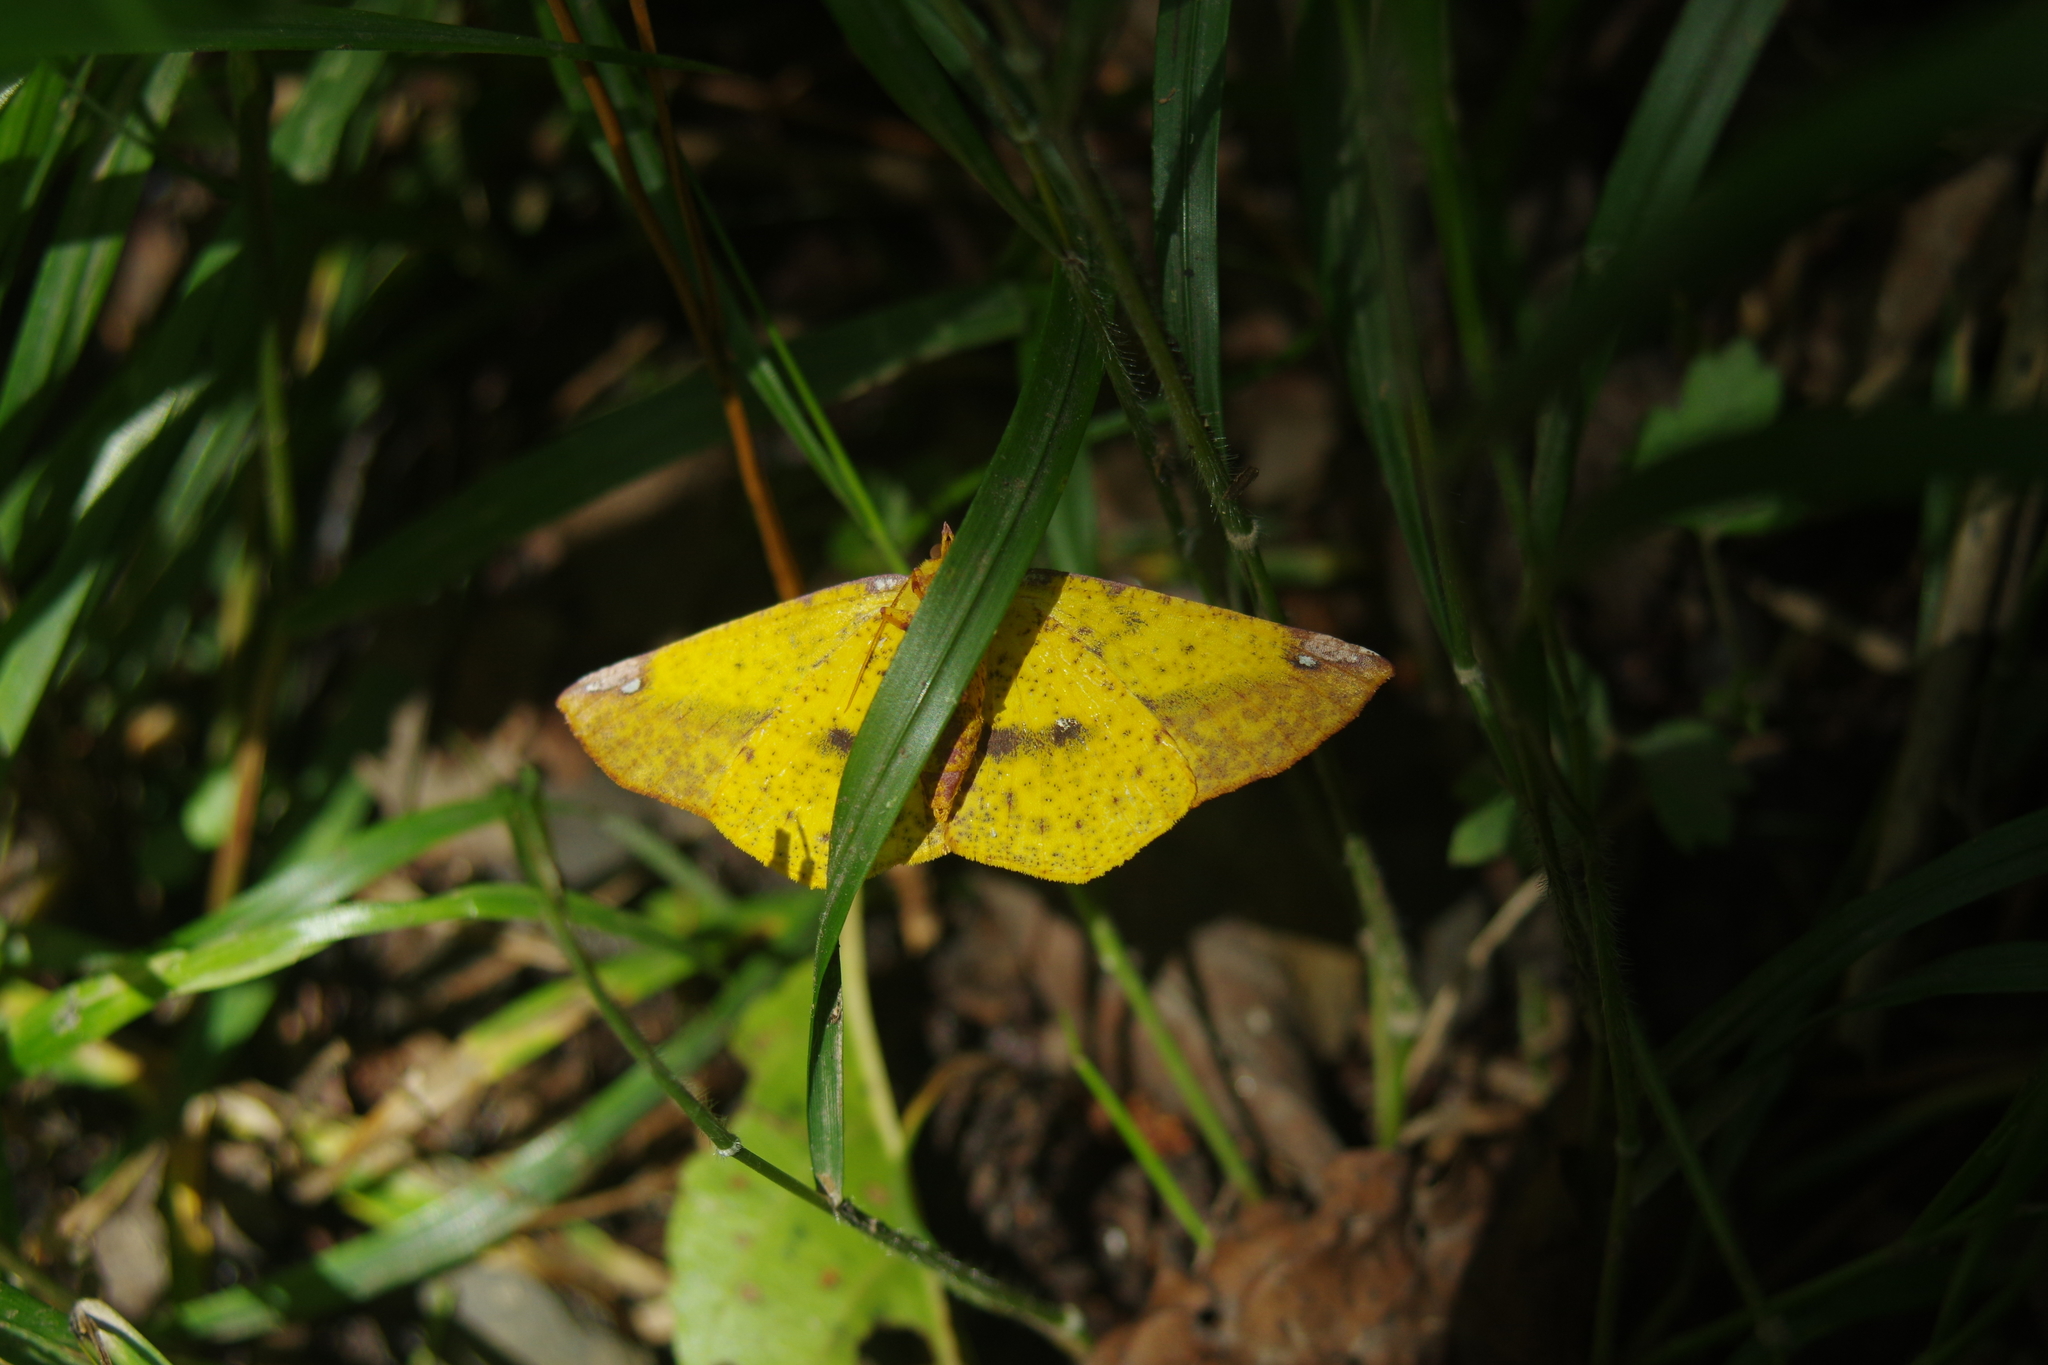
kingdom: Animalia
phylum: Arthropoda
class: Insecta
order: Lepidoptera
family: Geometridae
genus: Pseudomiza
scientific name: Pseudomiza aurata
